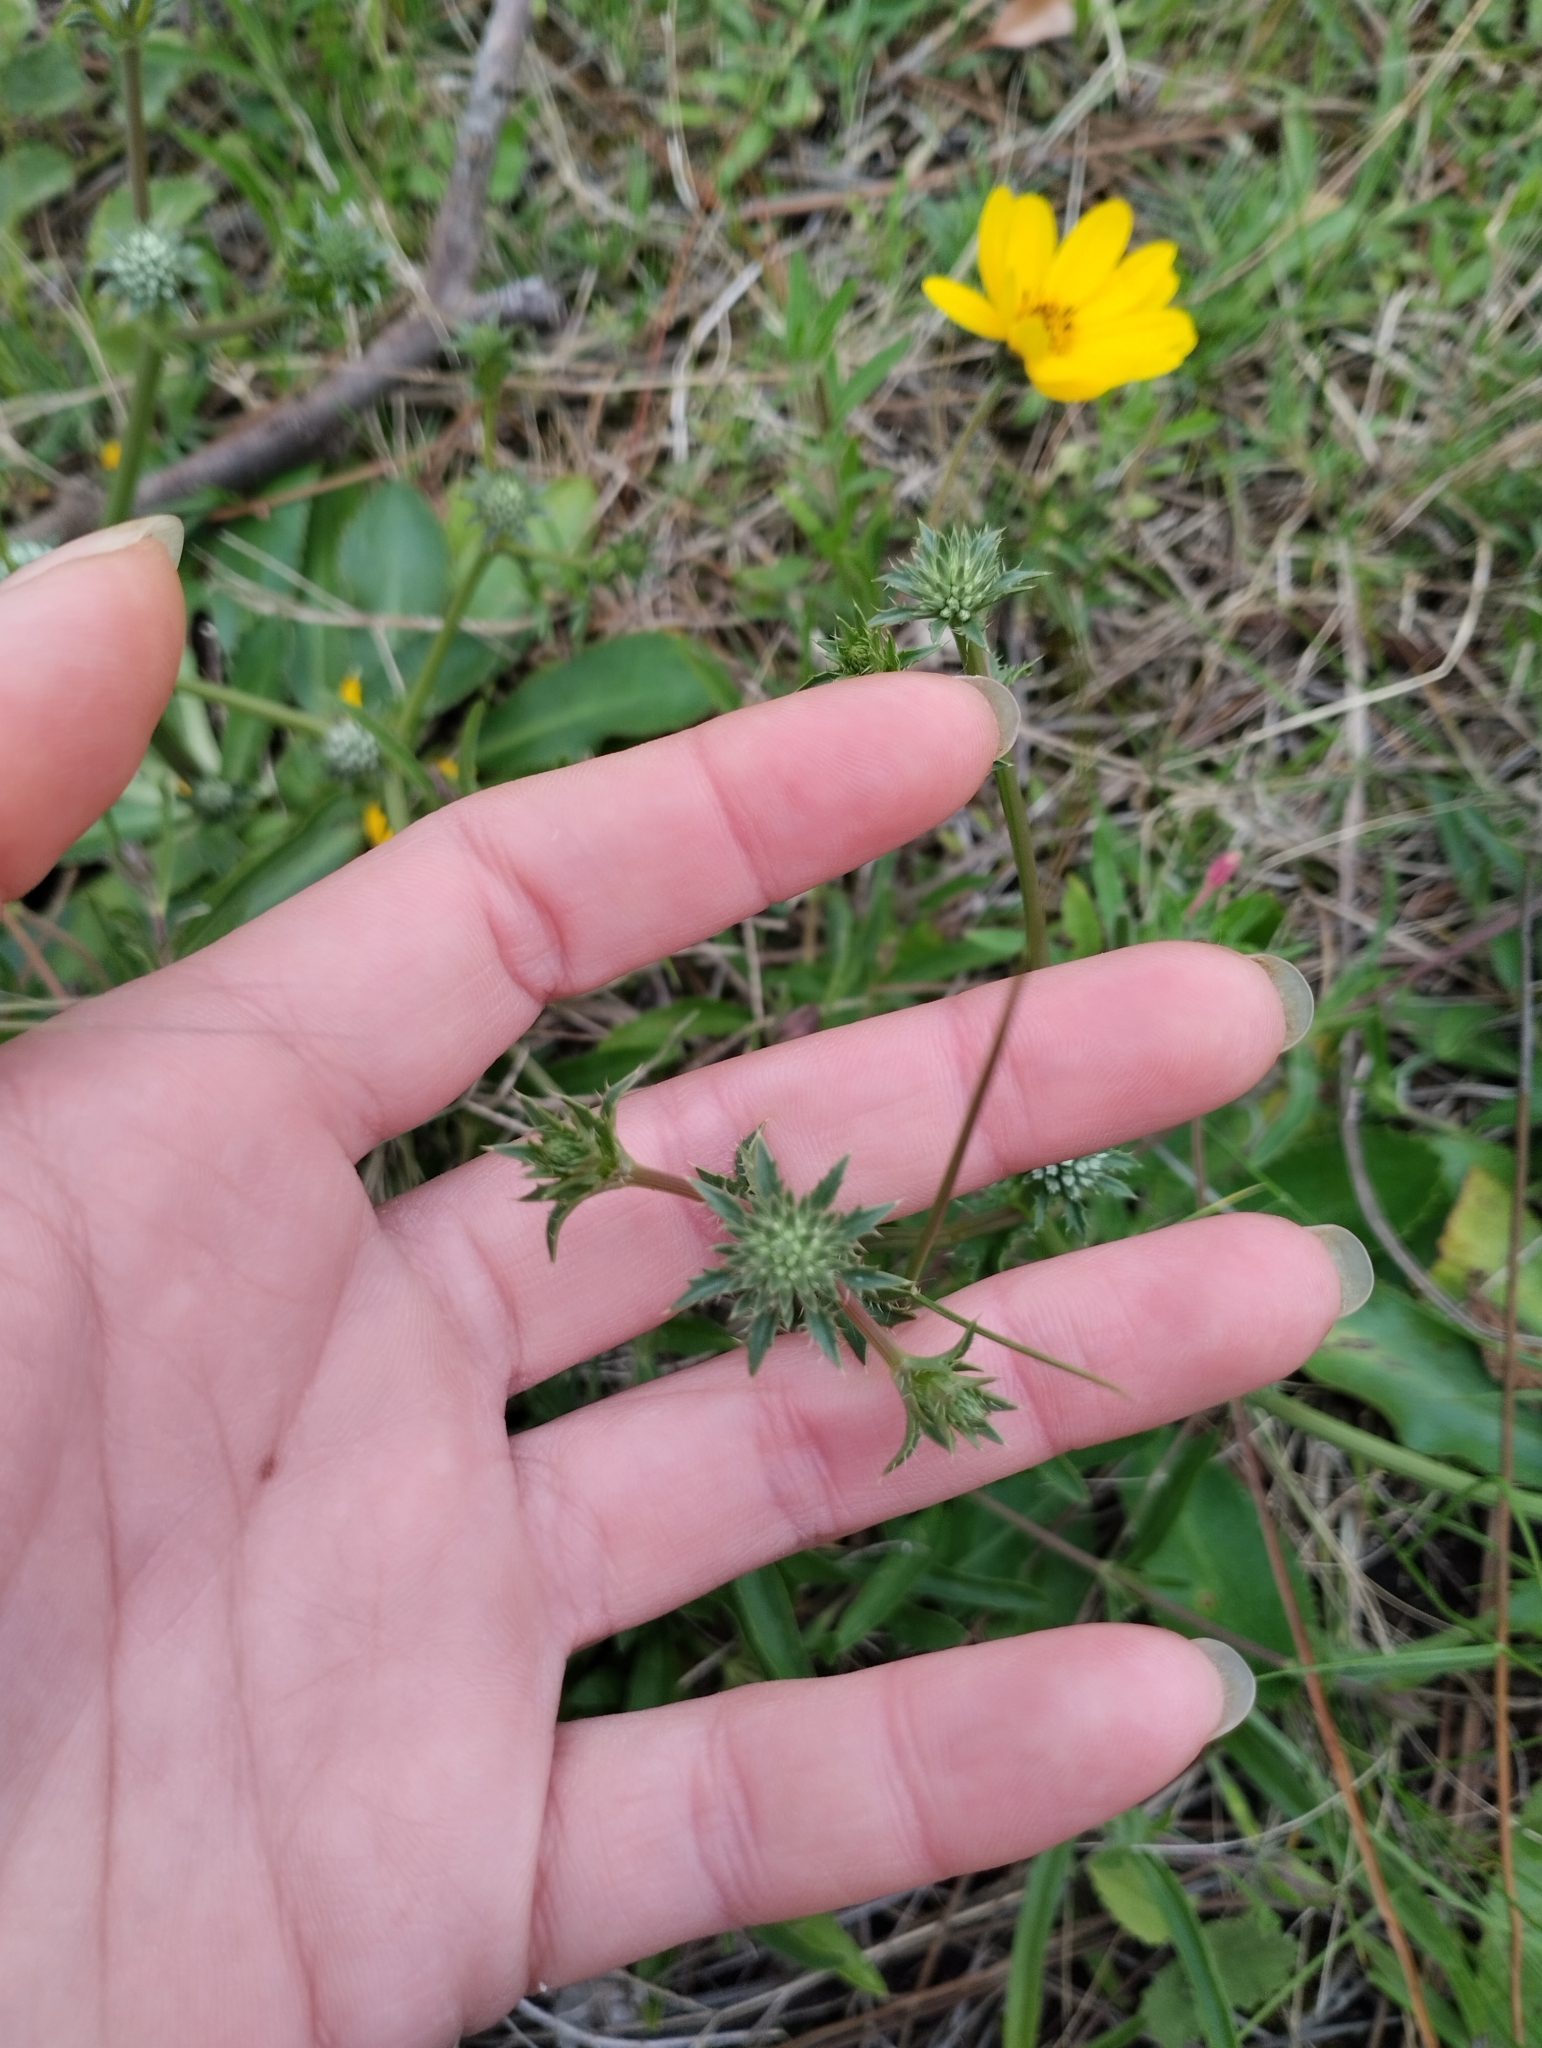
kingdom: Plantae
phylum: Tracheophyta
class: Magnoliopsida
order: Apiales
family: Apiaceae
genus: Eryngium
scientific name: Eryngium nudicaule
